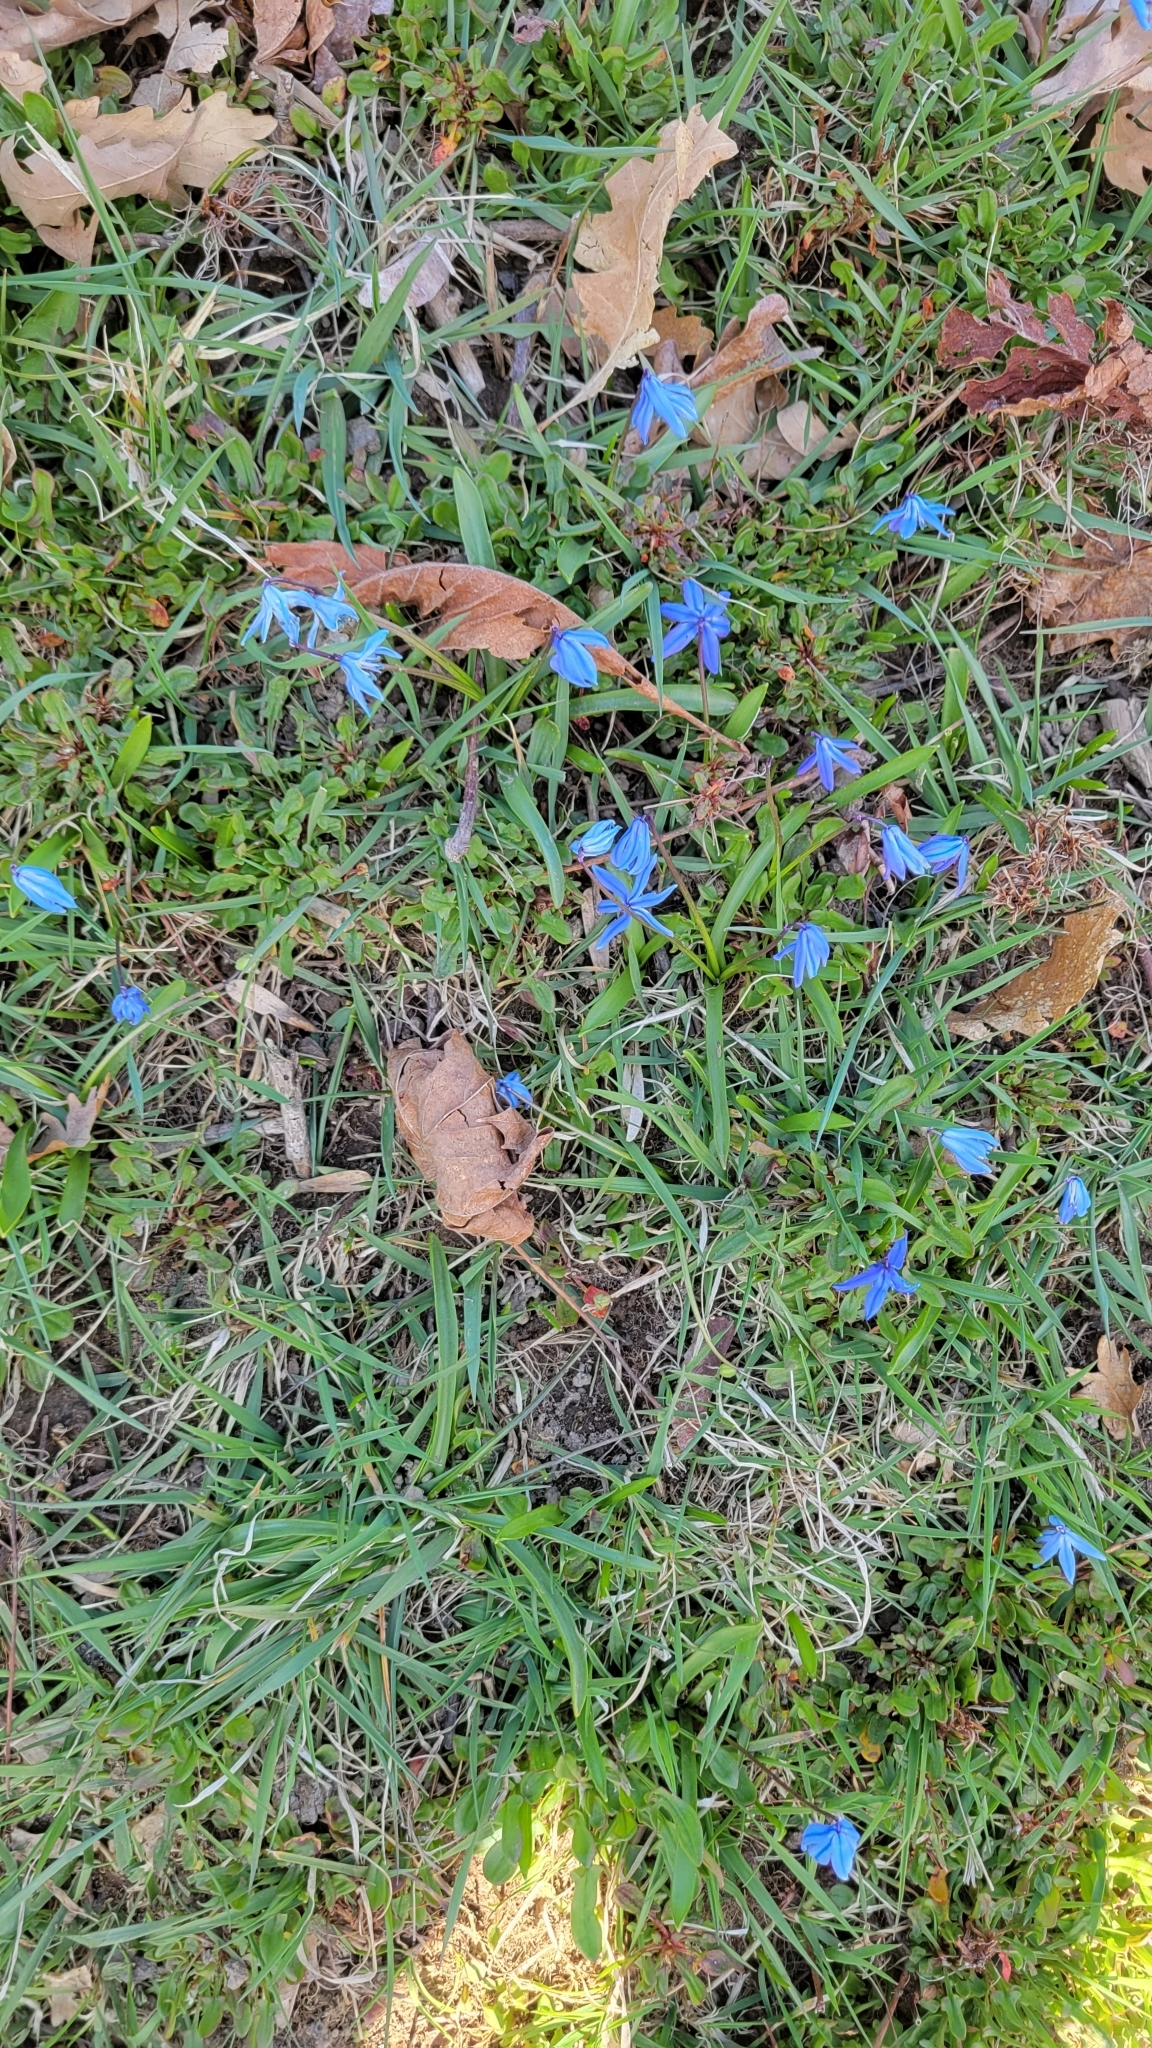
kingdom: Plantae
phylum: Tracheophyta
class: Liliopsida
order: Asparagales
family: Asparagaceae
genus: Scilla
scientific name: Scilla siberica
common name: Siberian squill
